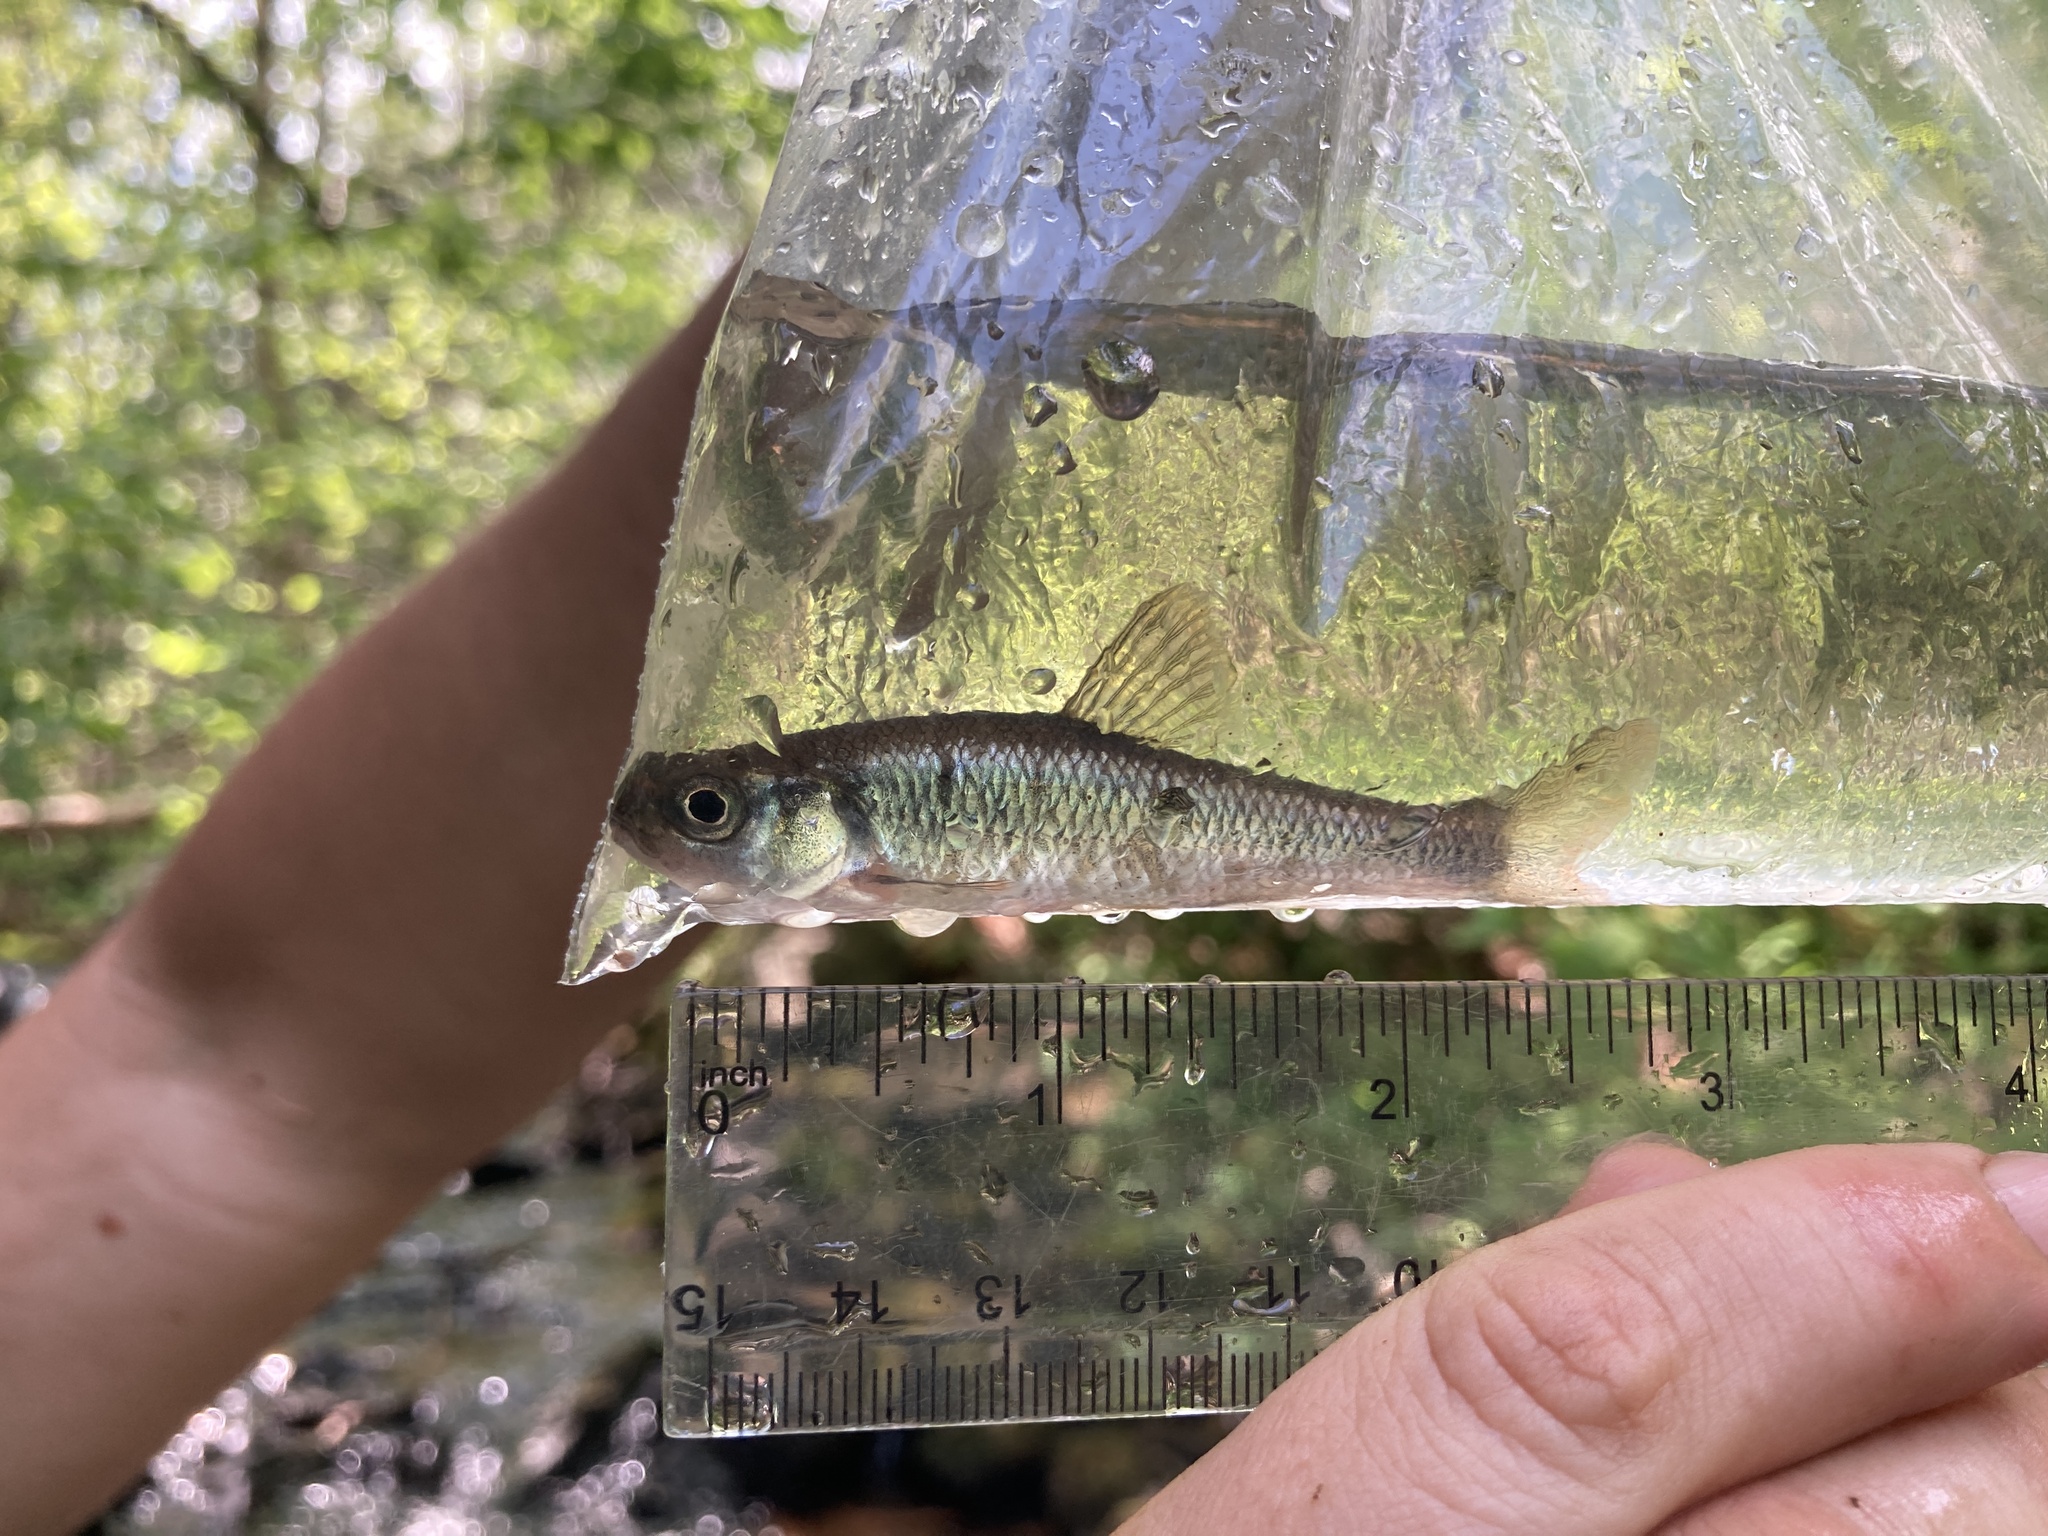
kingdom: Animalia
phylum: Chordata
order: Cypriniformes
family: Cyprinidae
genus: Luxilus
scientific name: Luxilus cornutus
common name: Common shiner
